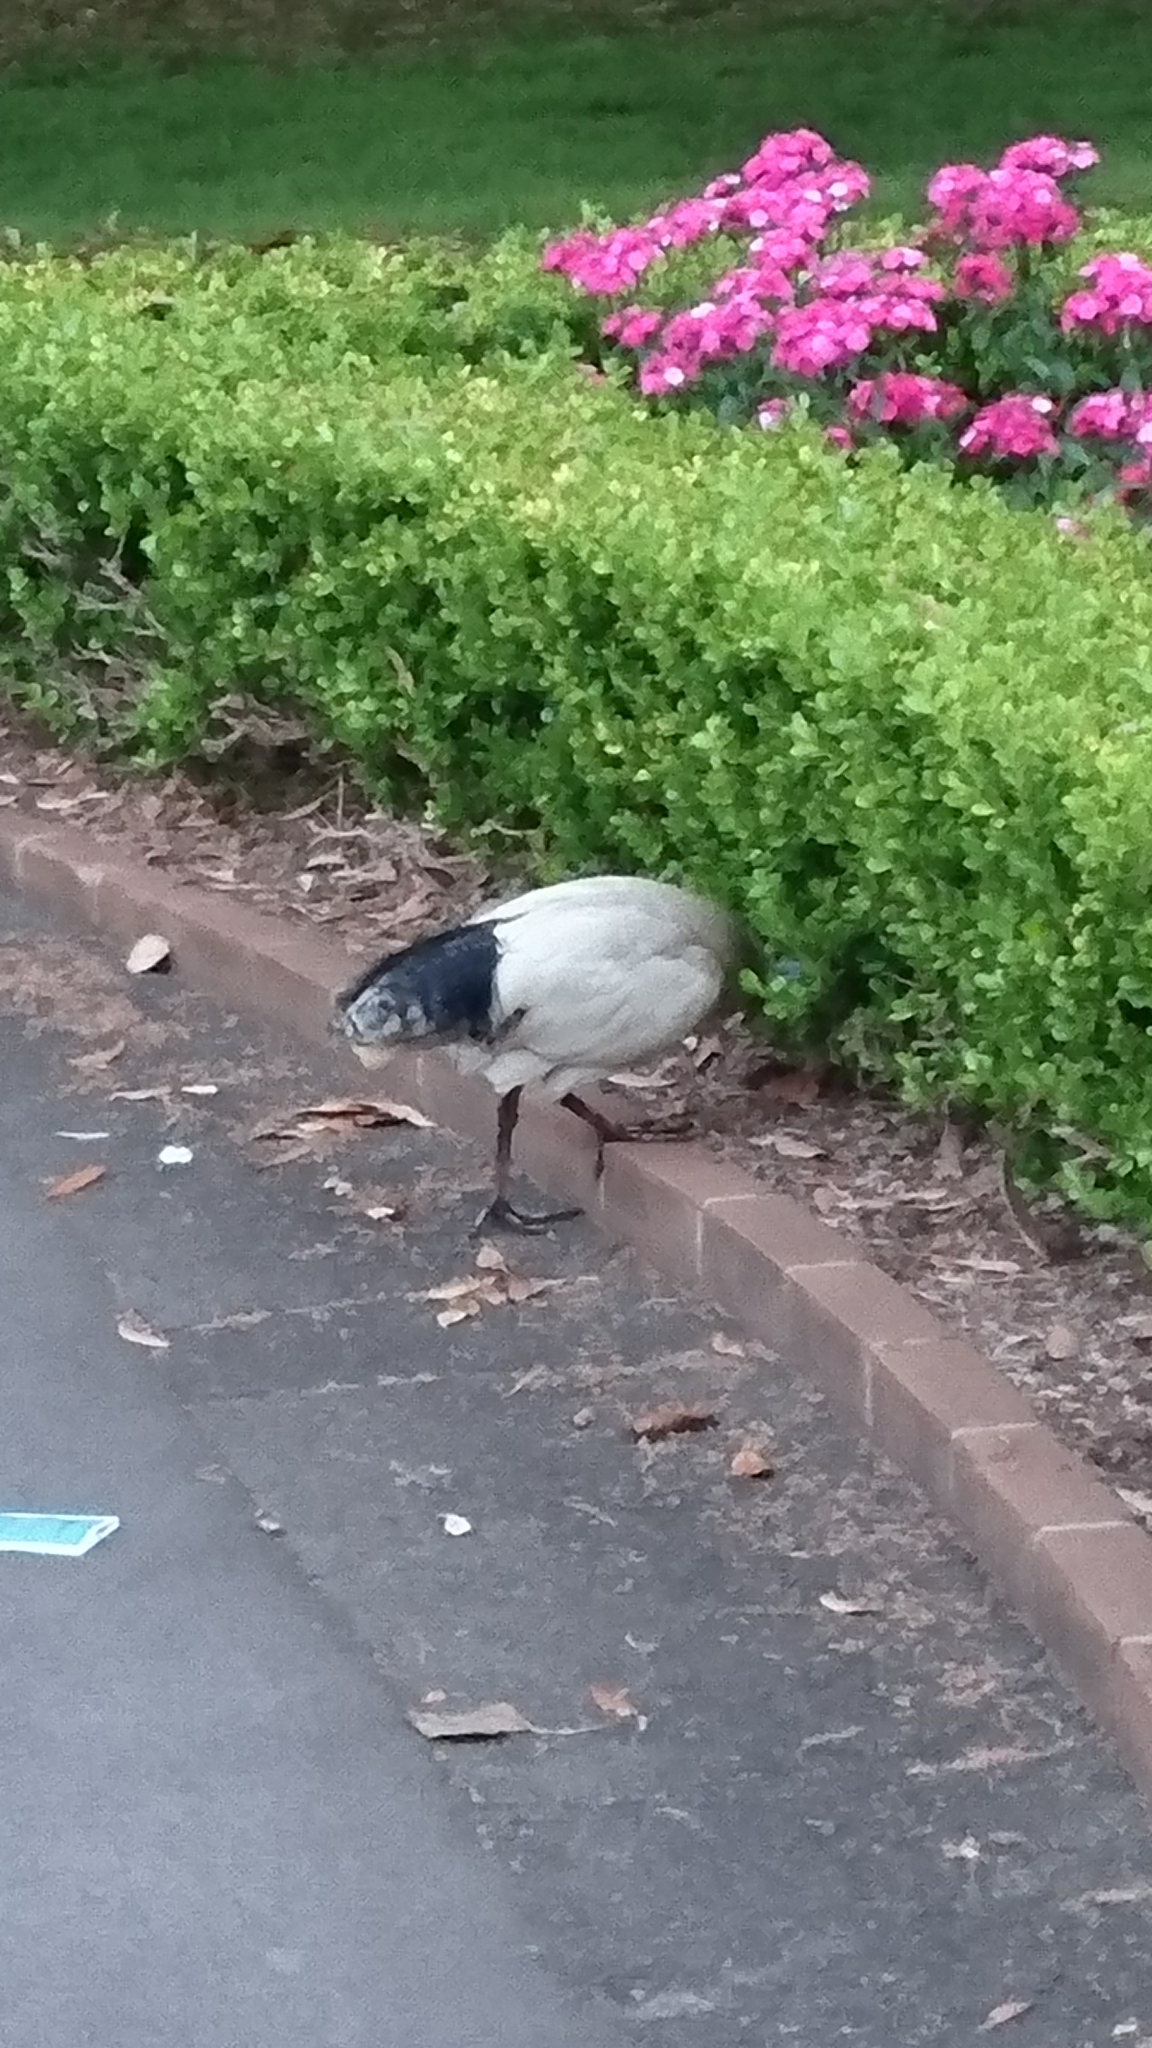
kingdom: Animalia
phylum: Chordata
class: Aves
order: Pelecaniformes
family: Threskiornithidae
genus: Threskiornis
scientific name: Threskiornis molucca
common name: Australian white ibis
